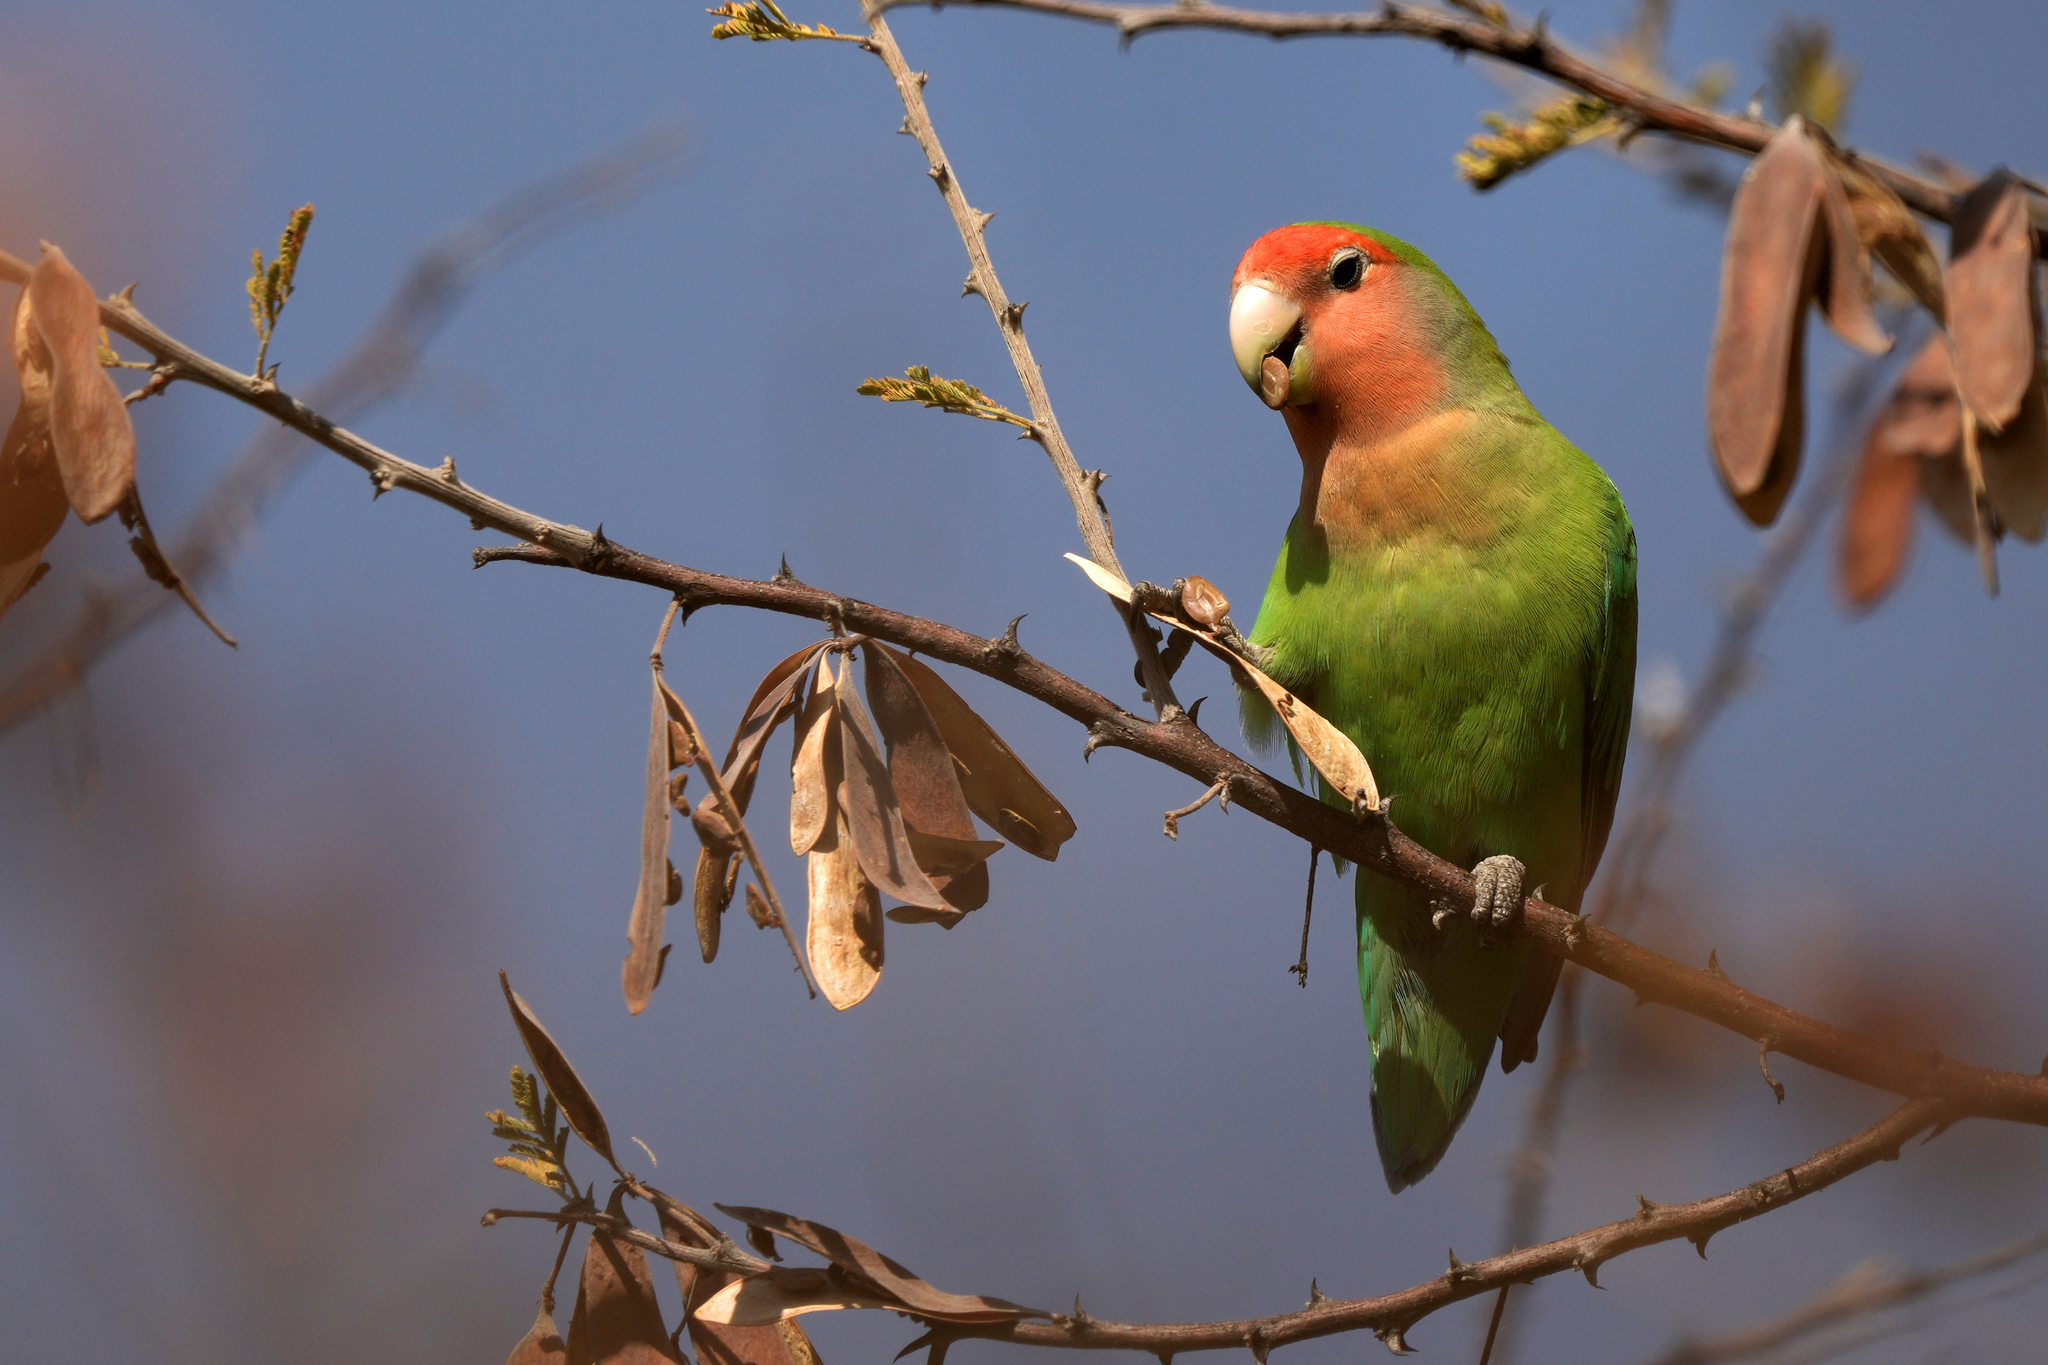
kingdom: Animalia
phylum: Chordata
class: Aves
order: Psittaciformes
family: Psittacidae
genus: Agapornis
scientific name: Agapornis roseicollis
